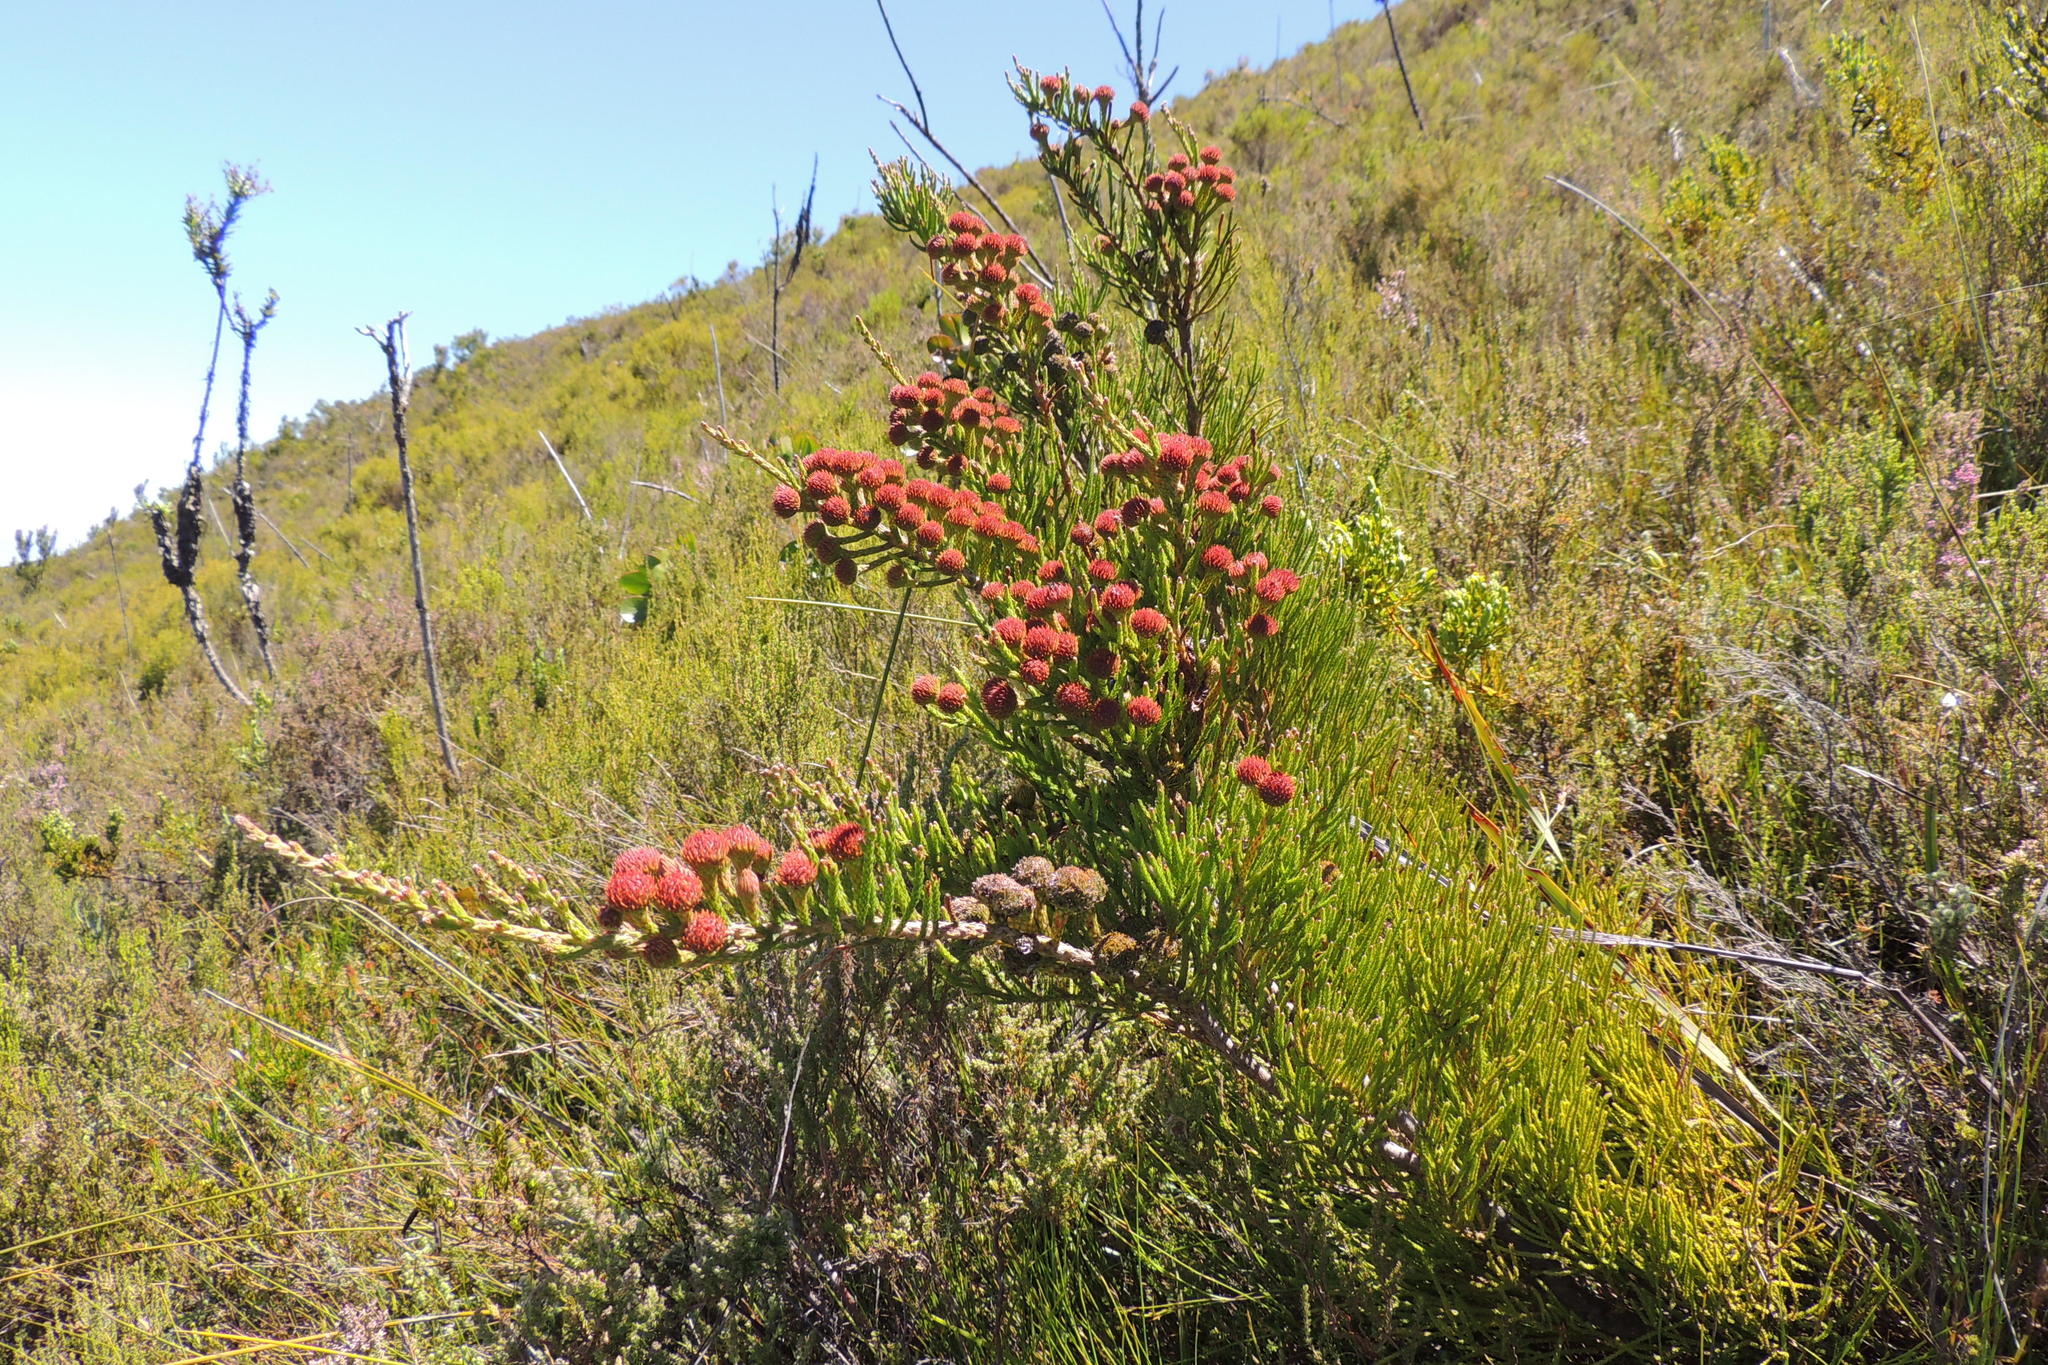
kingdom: Plantae
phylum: Tracheophyta
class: Magnoliopsida
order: Bruniales
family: Bruniaceae
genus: Brunia
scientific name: Brunia noduliflora
